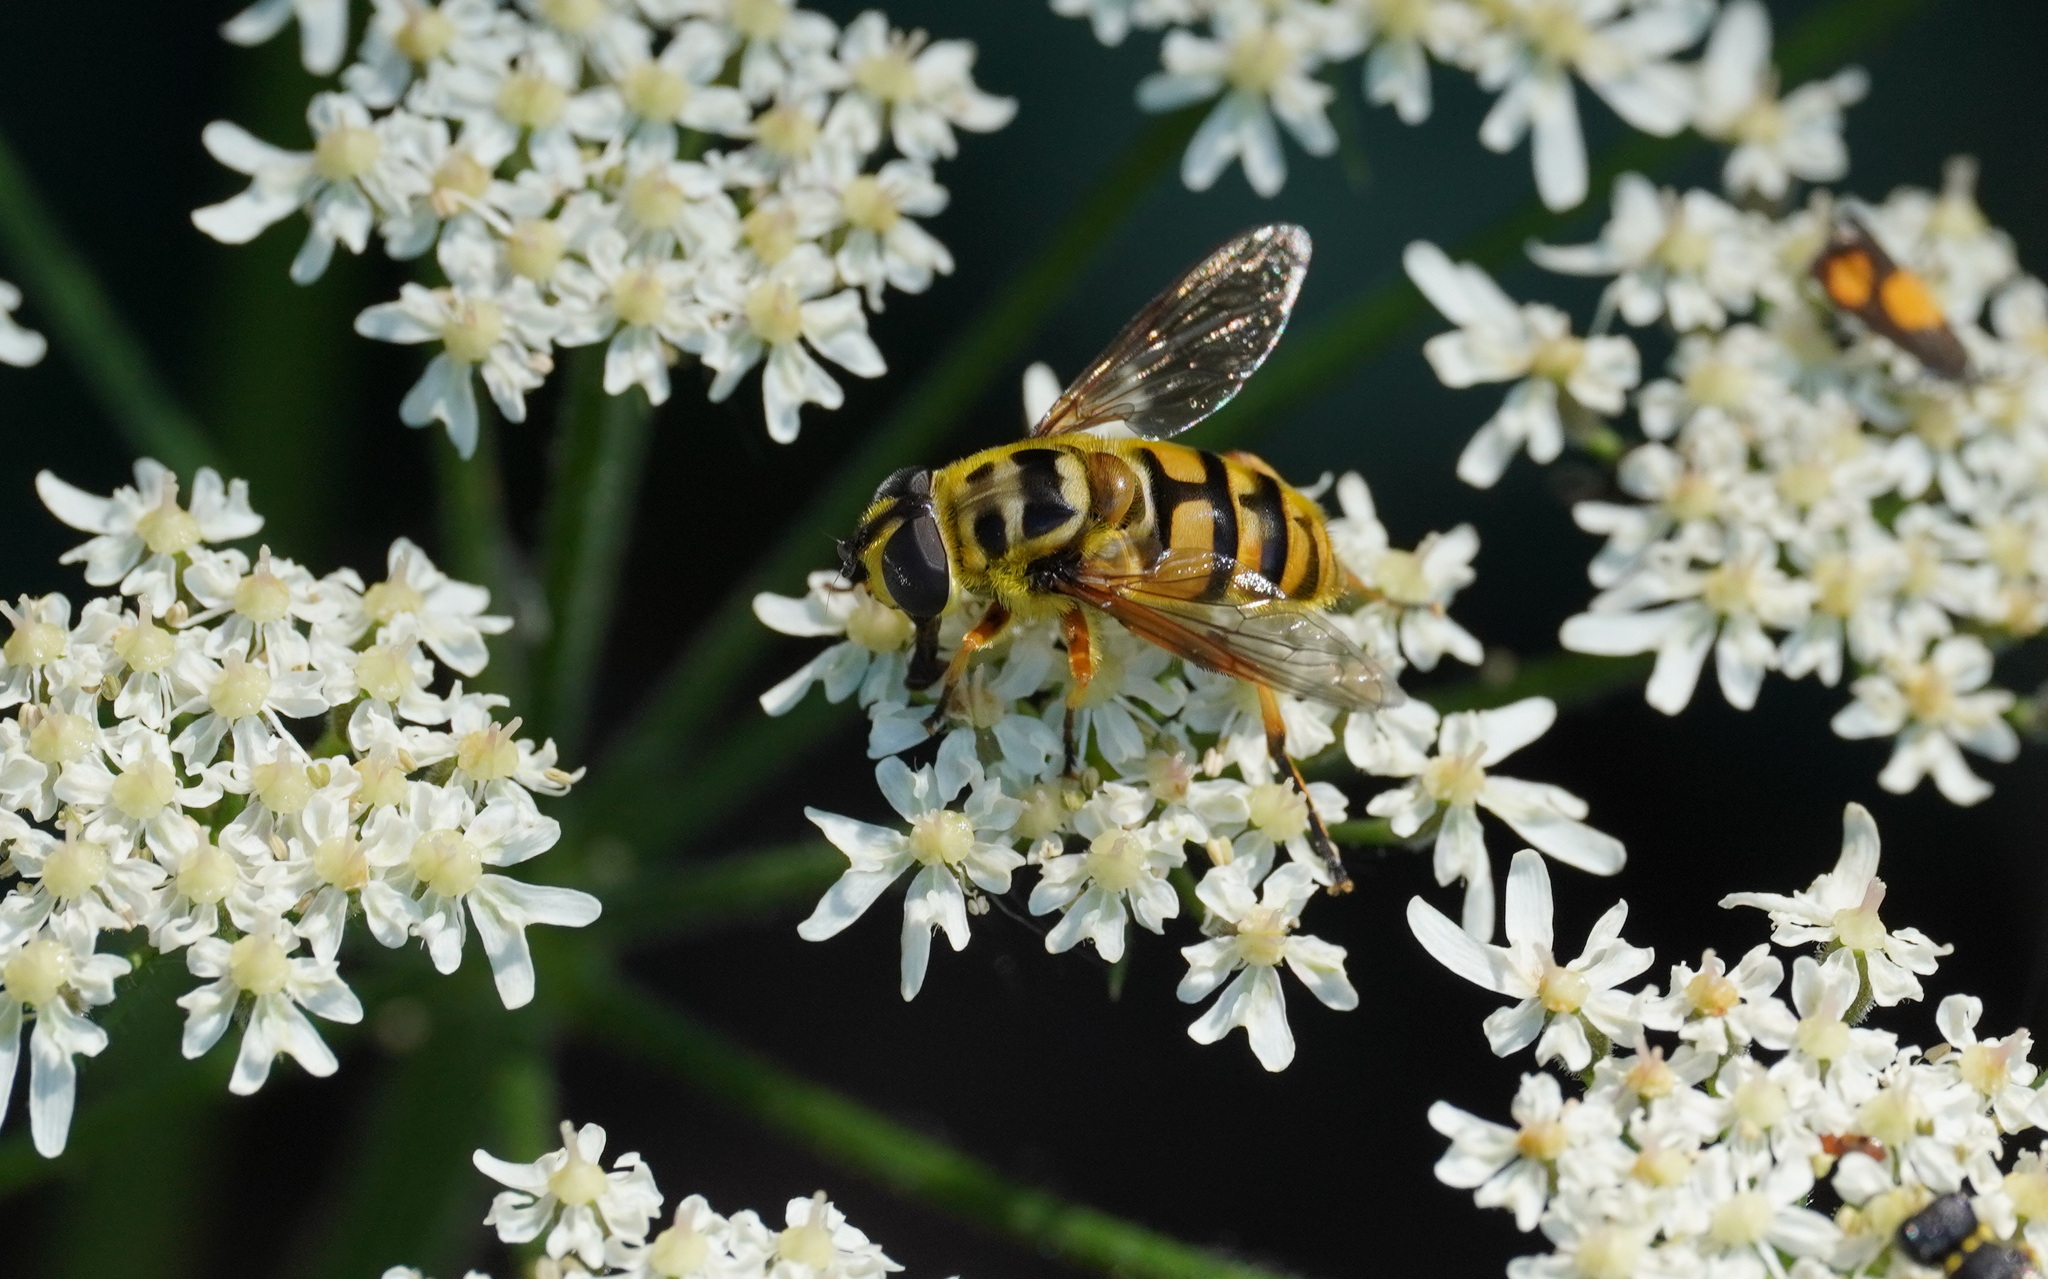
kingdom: Animalia
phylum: Arthropoda
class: Insecta
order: Diptera
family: Syrphidae
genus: Myathropa
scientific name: Myathropa florea
